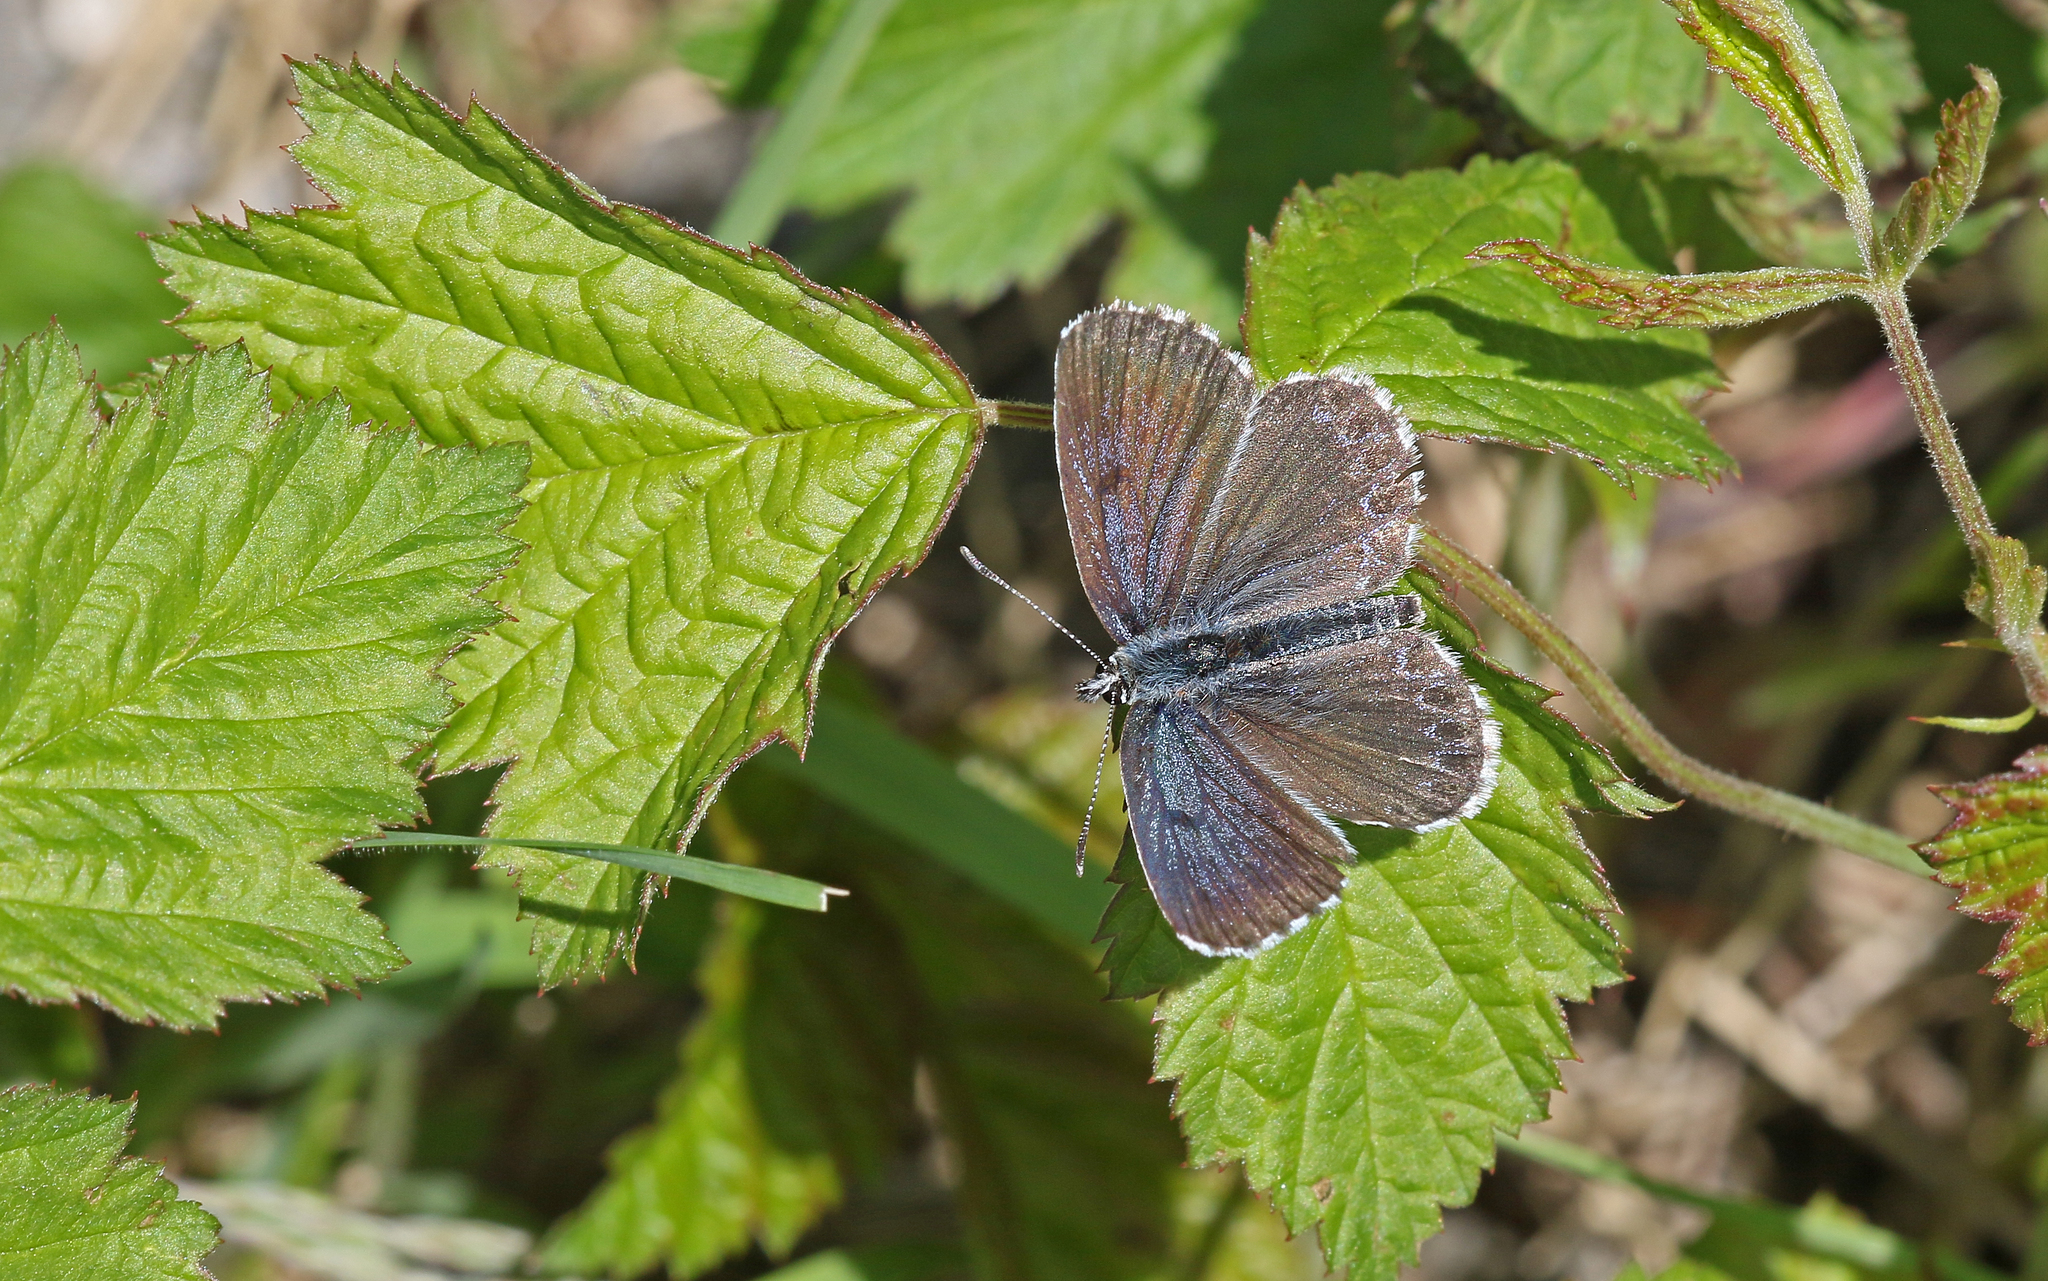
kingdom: Animalia
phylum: Arthropoda
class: Insecta
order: Lepidoptera
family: Lycaenidae
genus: Scolitantides
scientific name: Scolitantides orion
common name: Chequered blue
